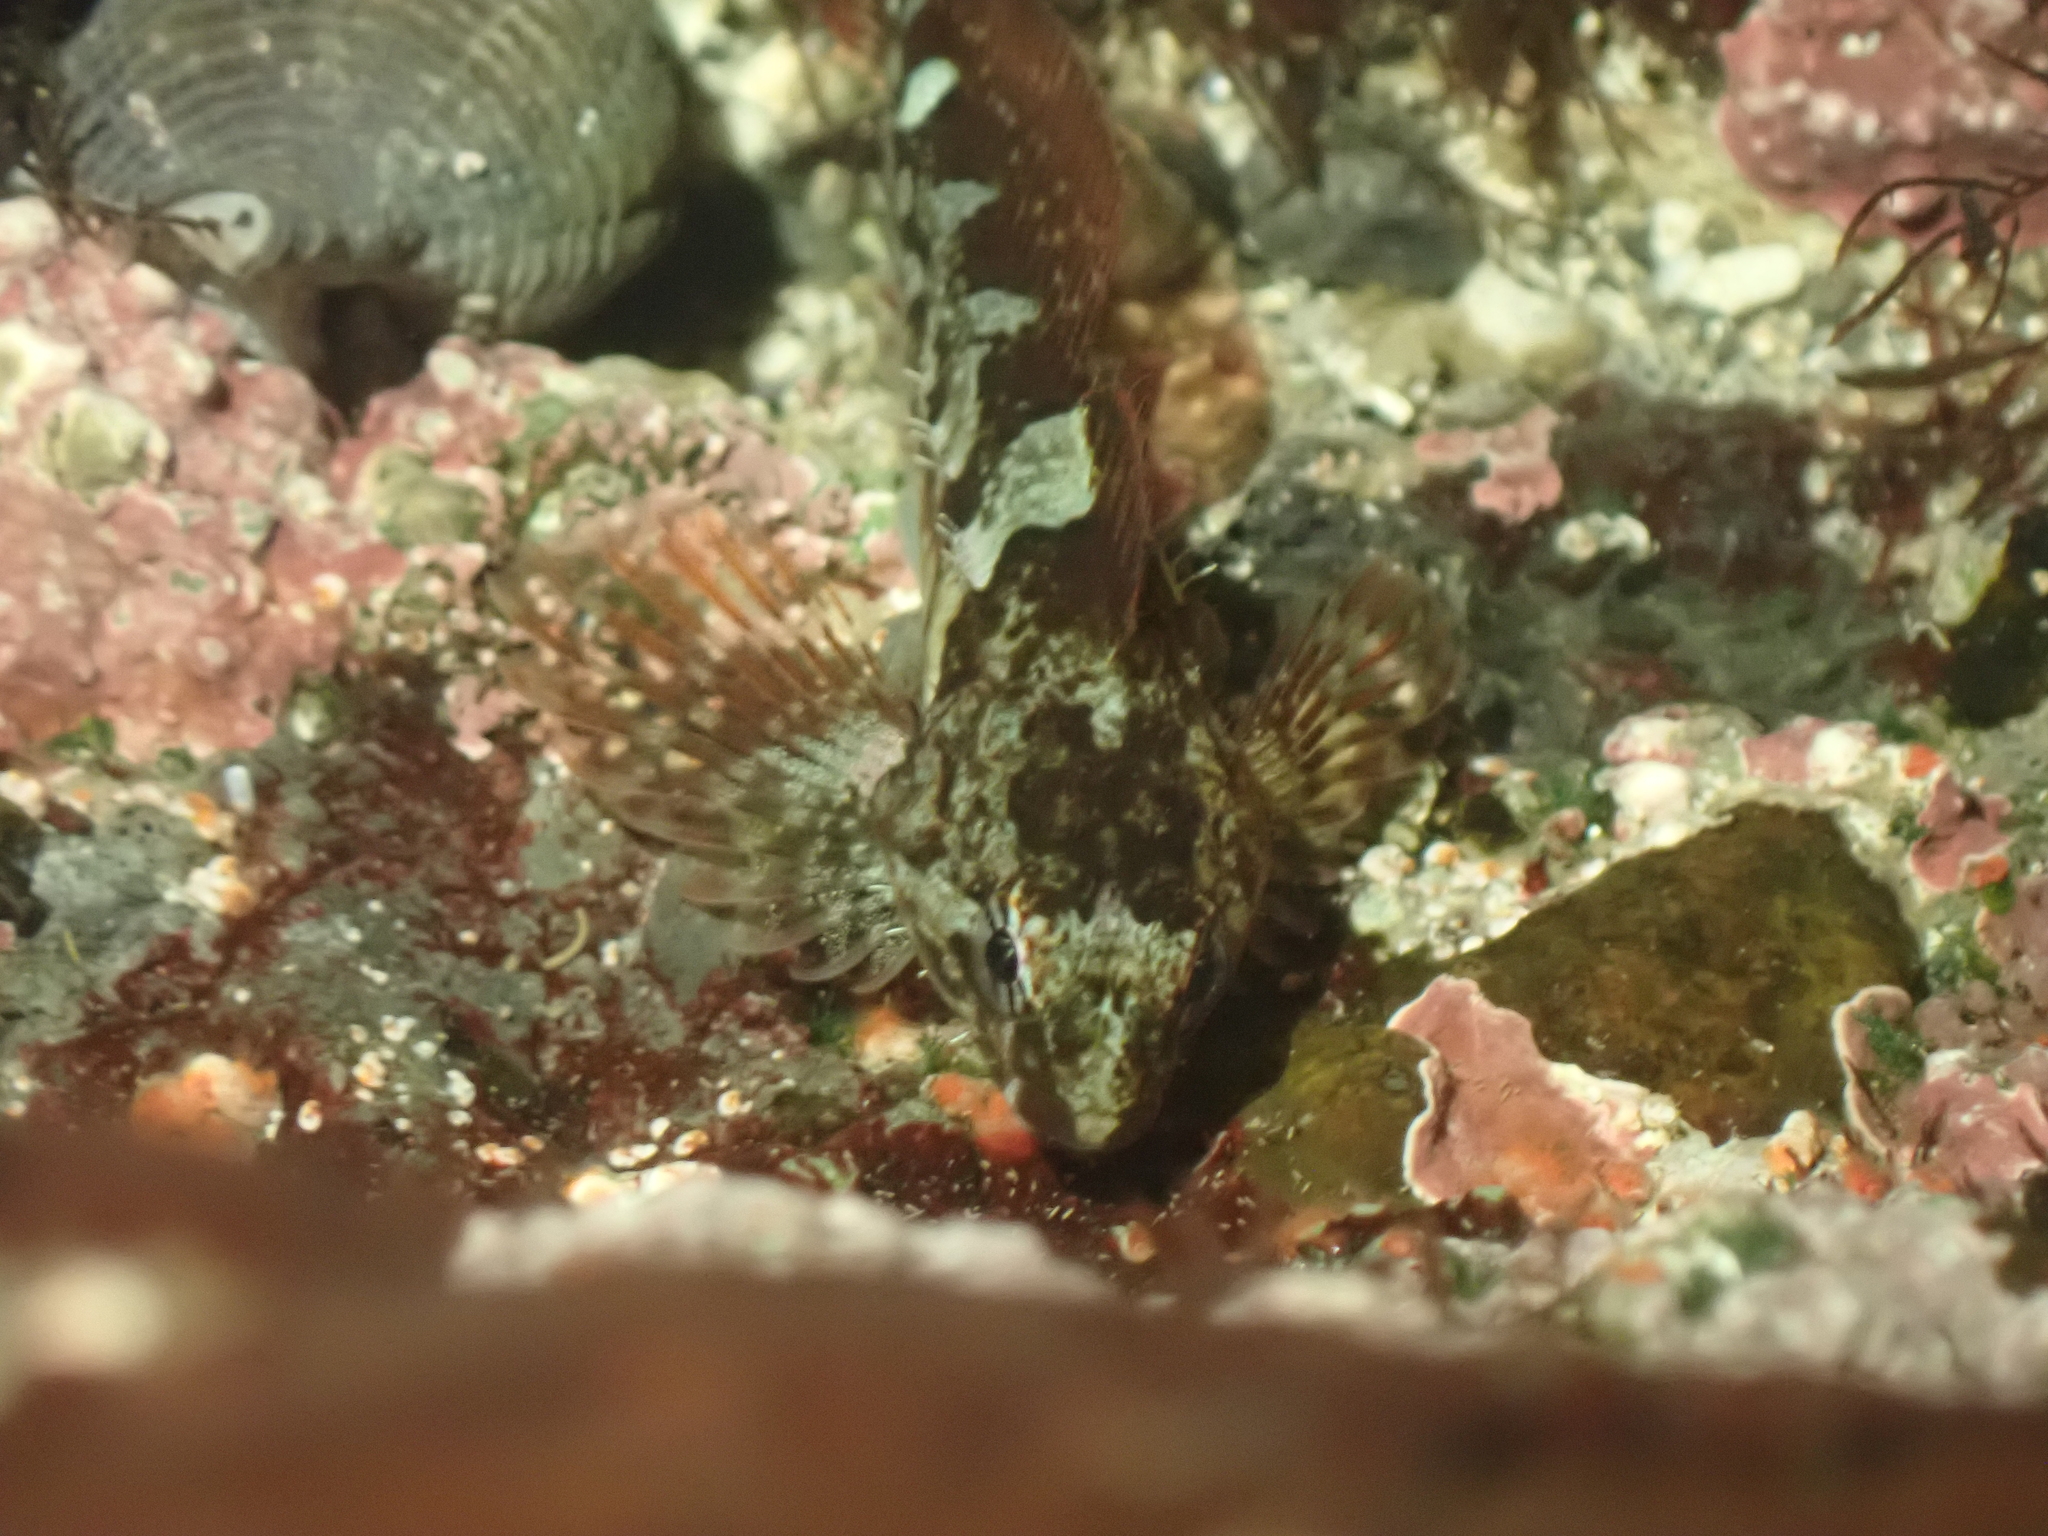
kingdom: Animalia
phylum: Chordata
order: Scorpaeniformes
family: Cottidae
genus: Oligocottus
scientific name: Oligocottus maculosus
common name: Tidepool sculpin
